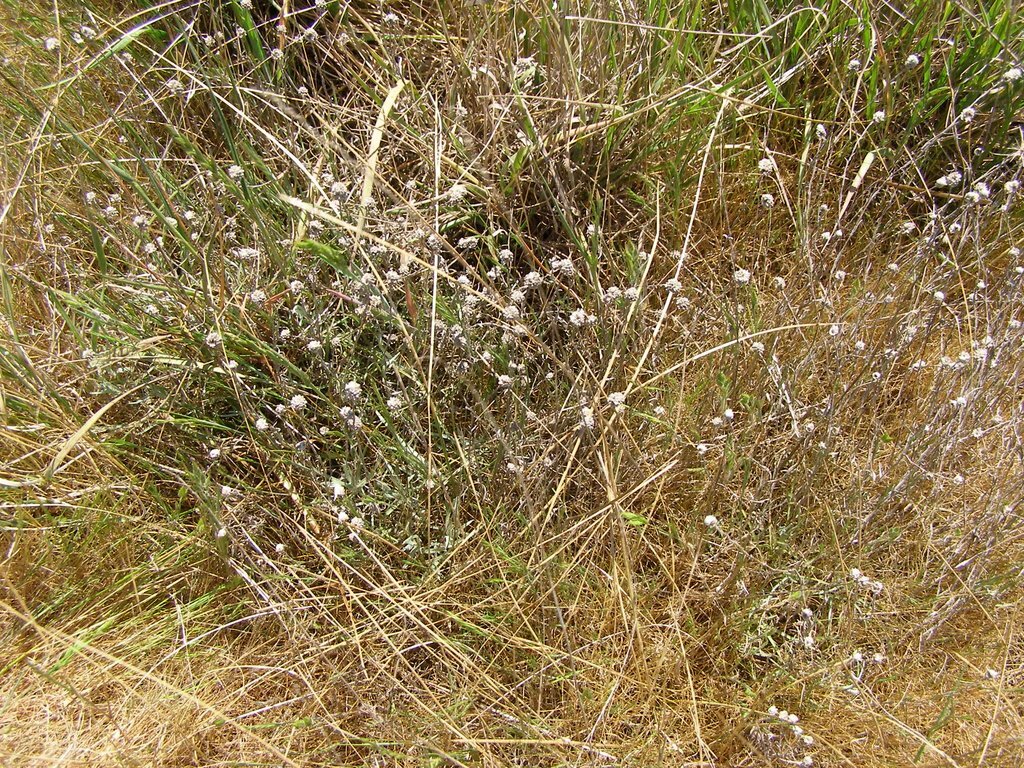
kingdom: Plantae
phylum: Tracheophyta
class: Magnoliopsida
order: Asterales
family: Asteraceae
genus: Calocephalus
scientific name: Calocephalus lacteus
